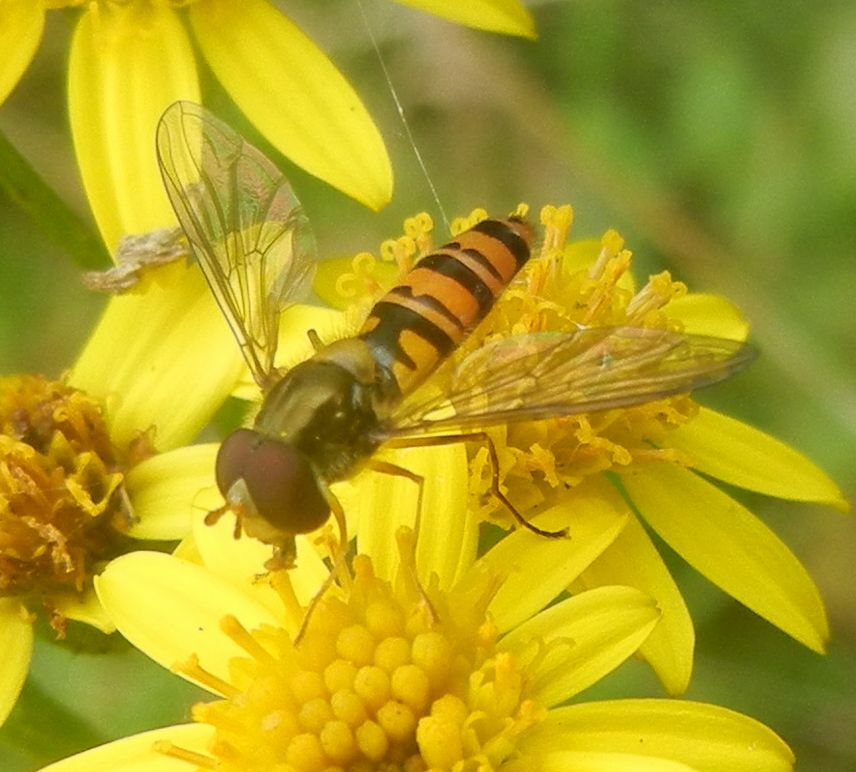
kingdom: Animalia
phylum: Arthropoda
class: Insecta
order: Diptera
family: Syrphidae
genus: Episyrphus
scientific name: Episyrphus balteatus
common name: Marmalade hoverfly
